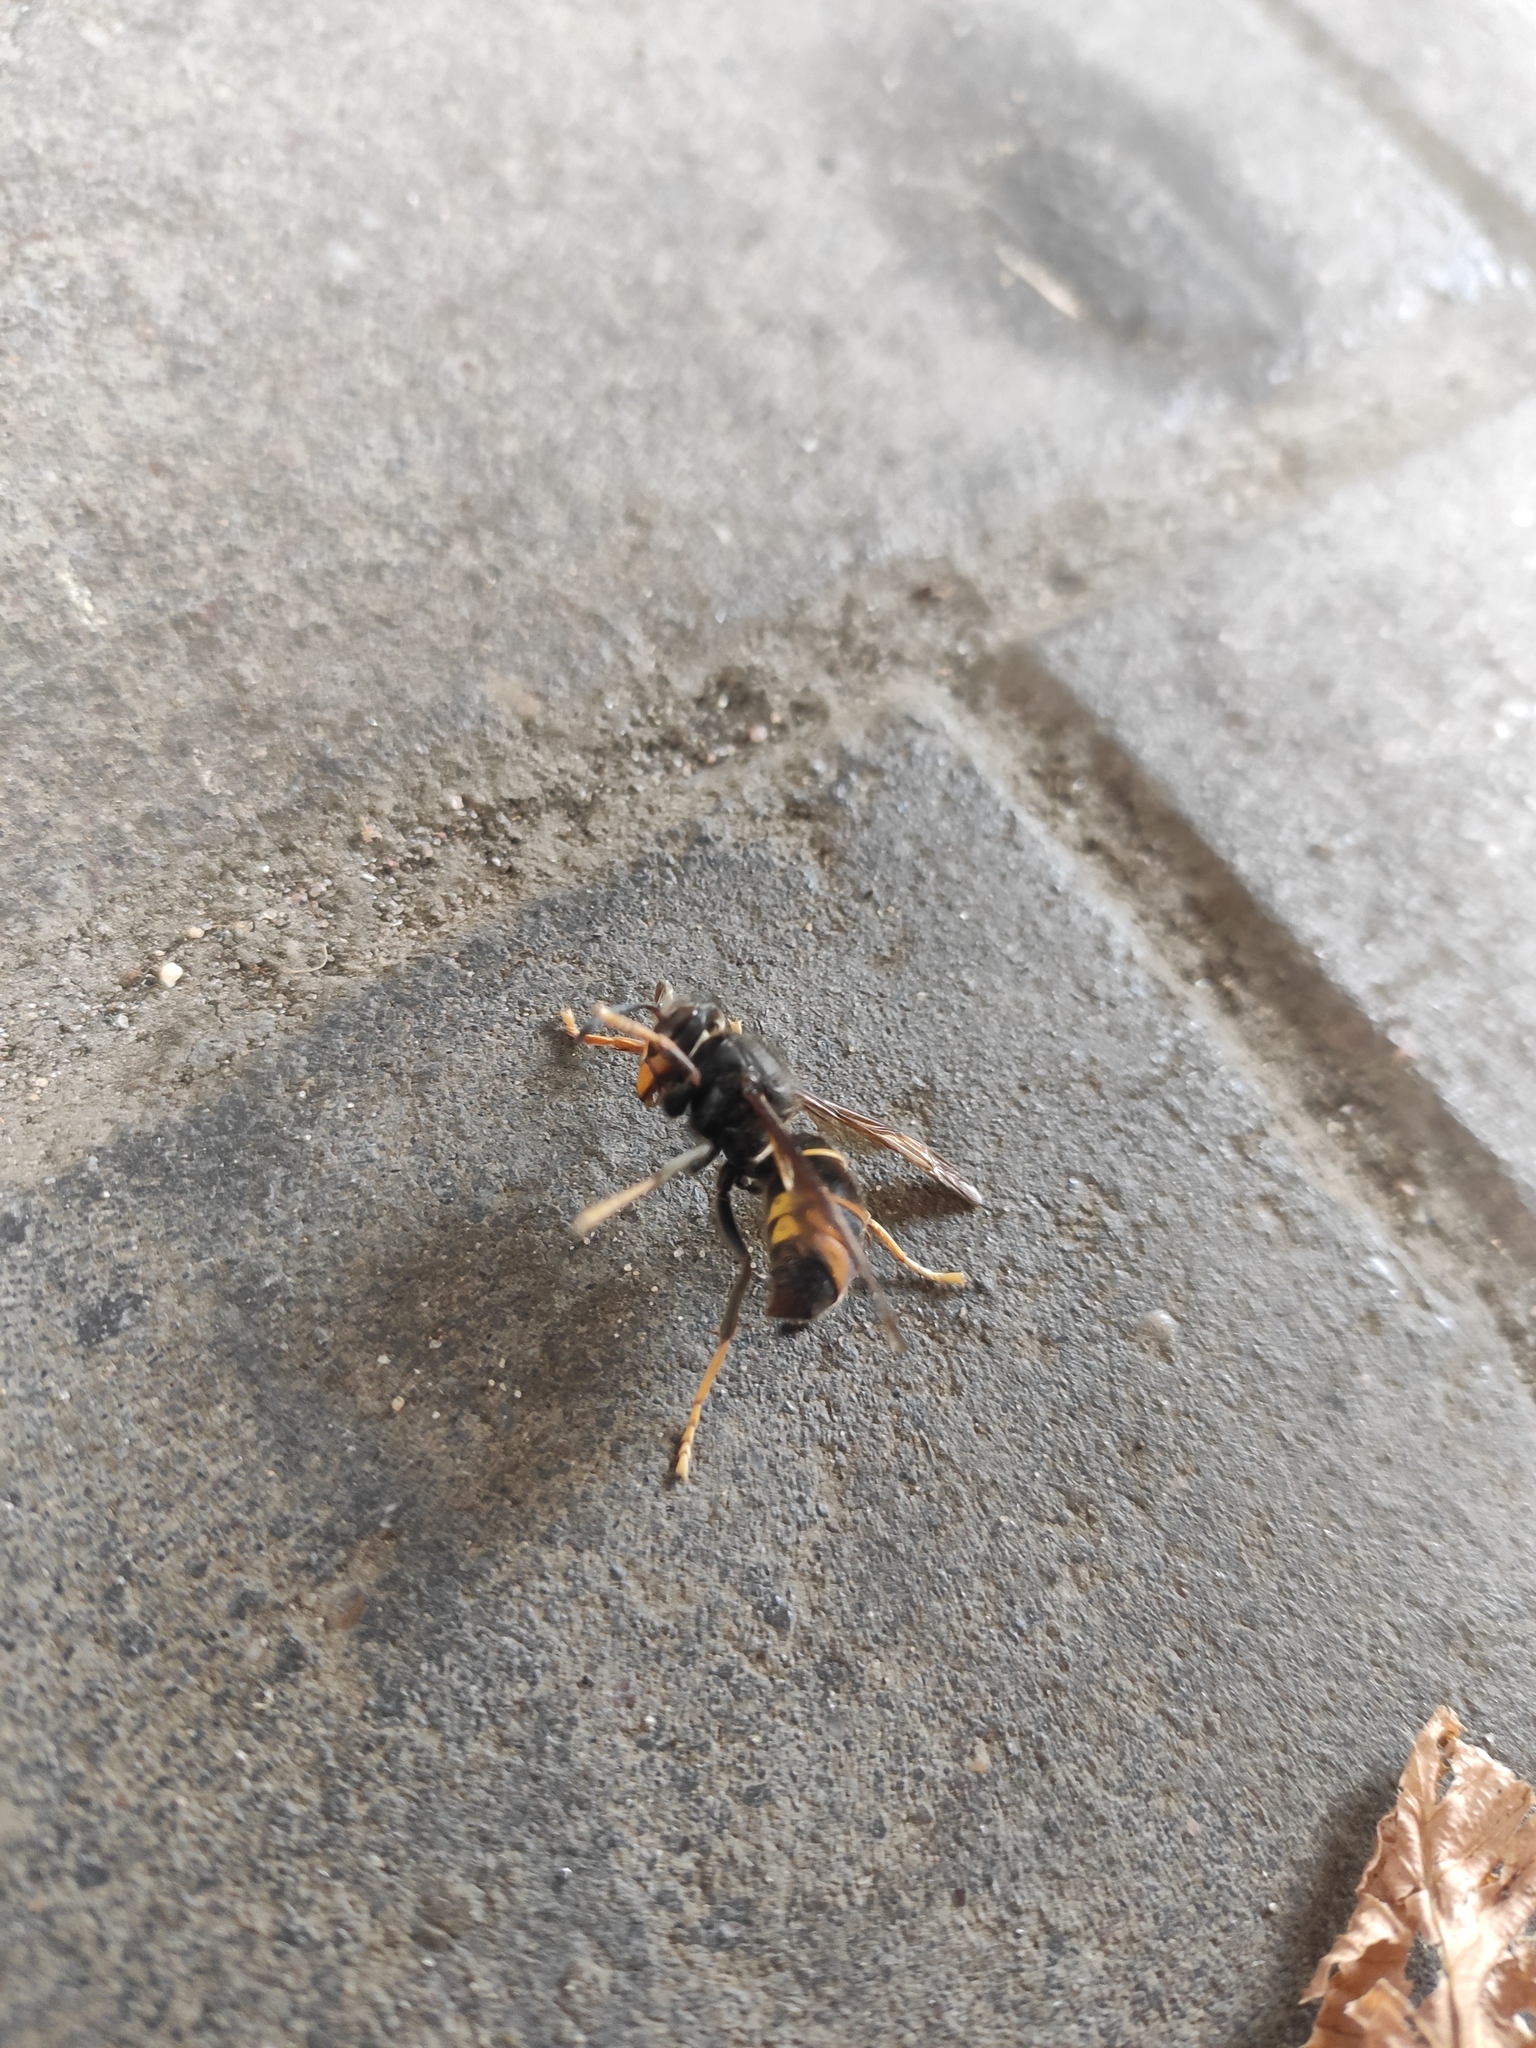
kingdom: Animalia
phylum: Arthropoda
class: Insecta
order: Hymenoptera
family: Vespidae
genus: Vespa
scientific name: Vespa velutina
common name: Asian hornet
